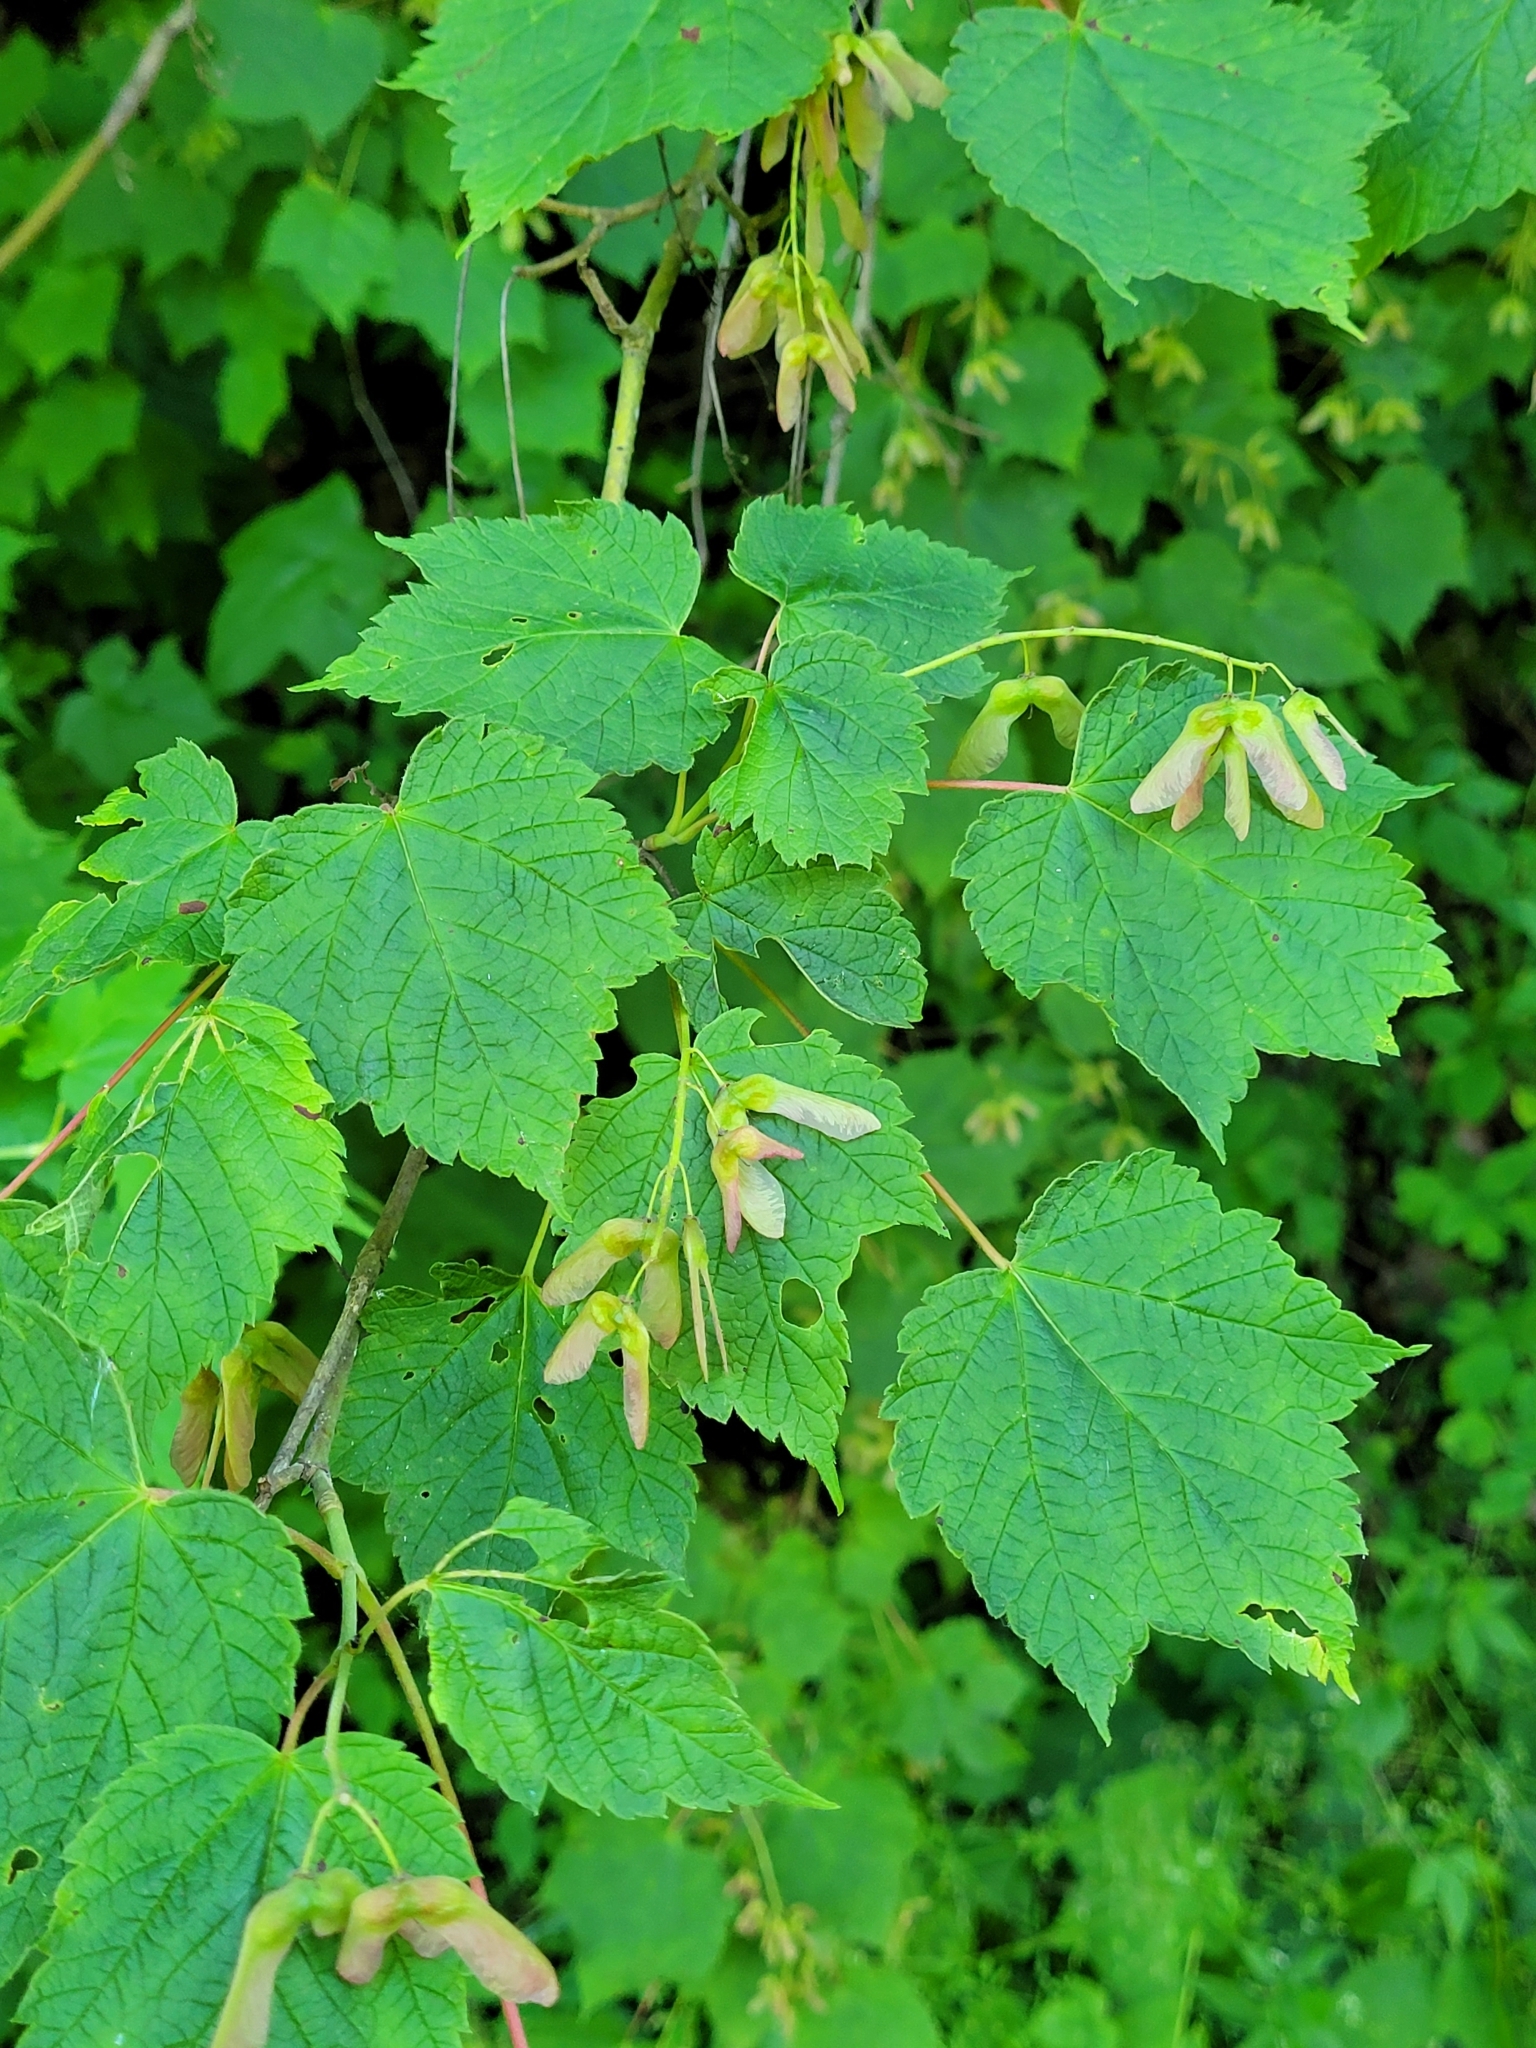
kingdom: Plantae
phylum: Tracheophyta
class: Magnoliopsida
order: Sapindales
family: Sapindaceae
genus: Acer
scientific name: Acer spicatum
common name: Mountain maple
